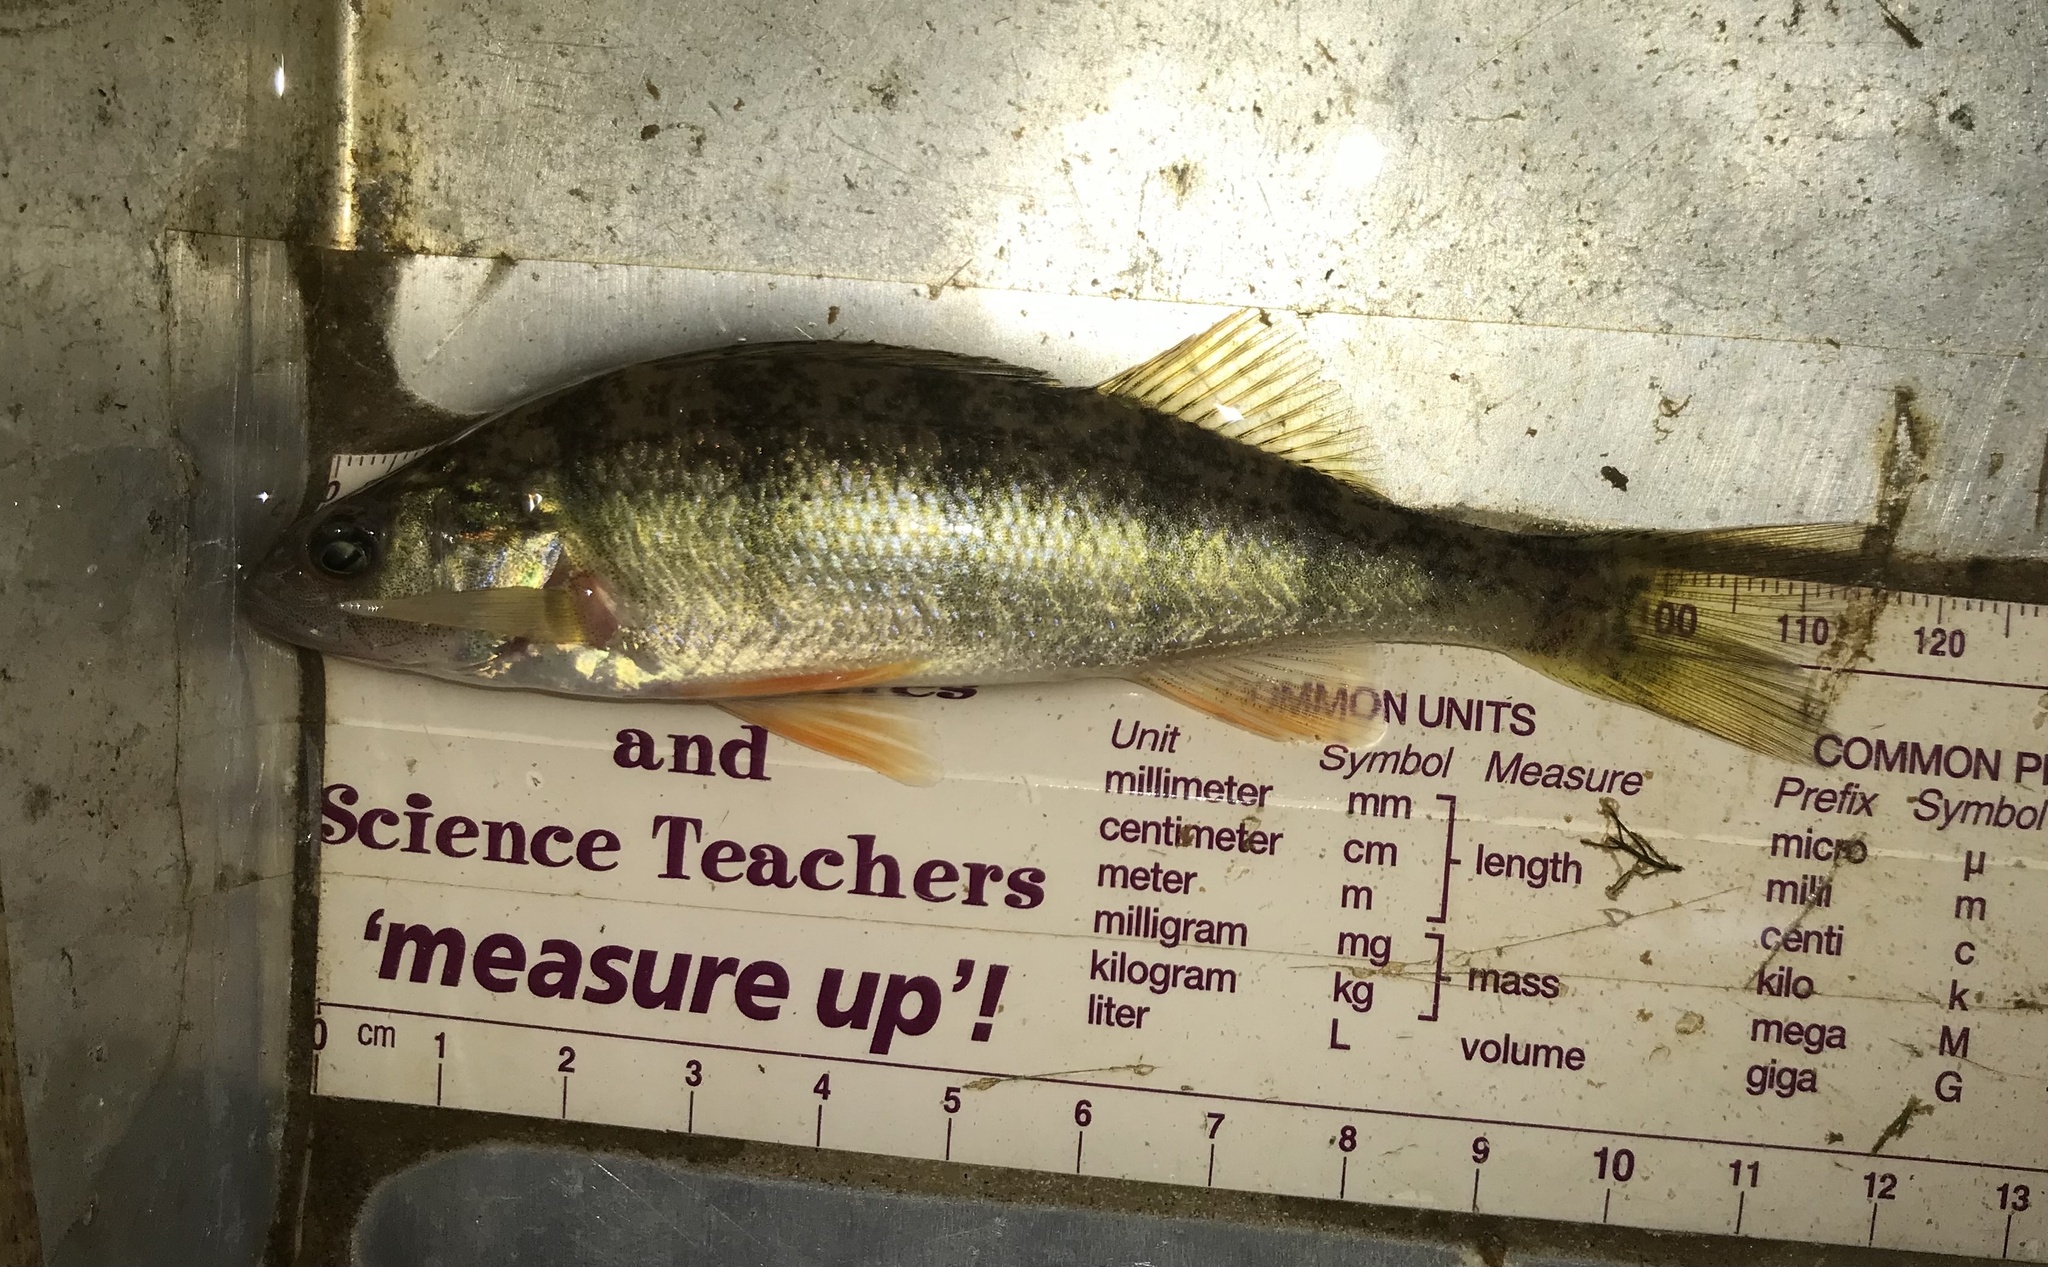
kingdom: Animalia
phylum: Chordata
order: Perciformes
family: Percidae
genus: Perca
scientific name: Perca flavescens
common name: Yellow perch
